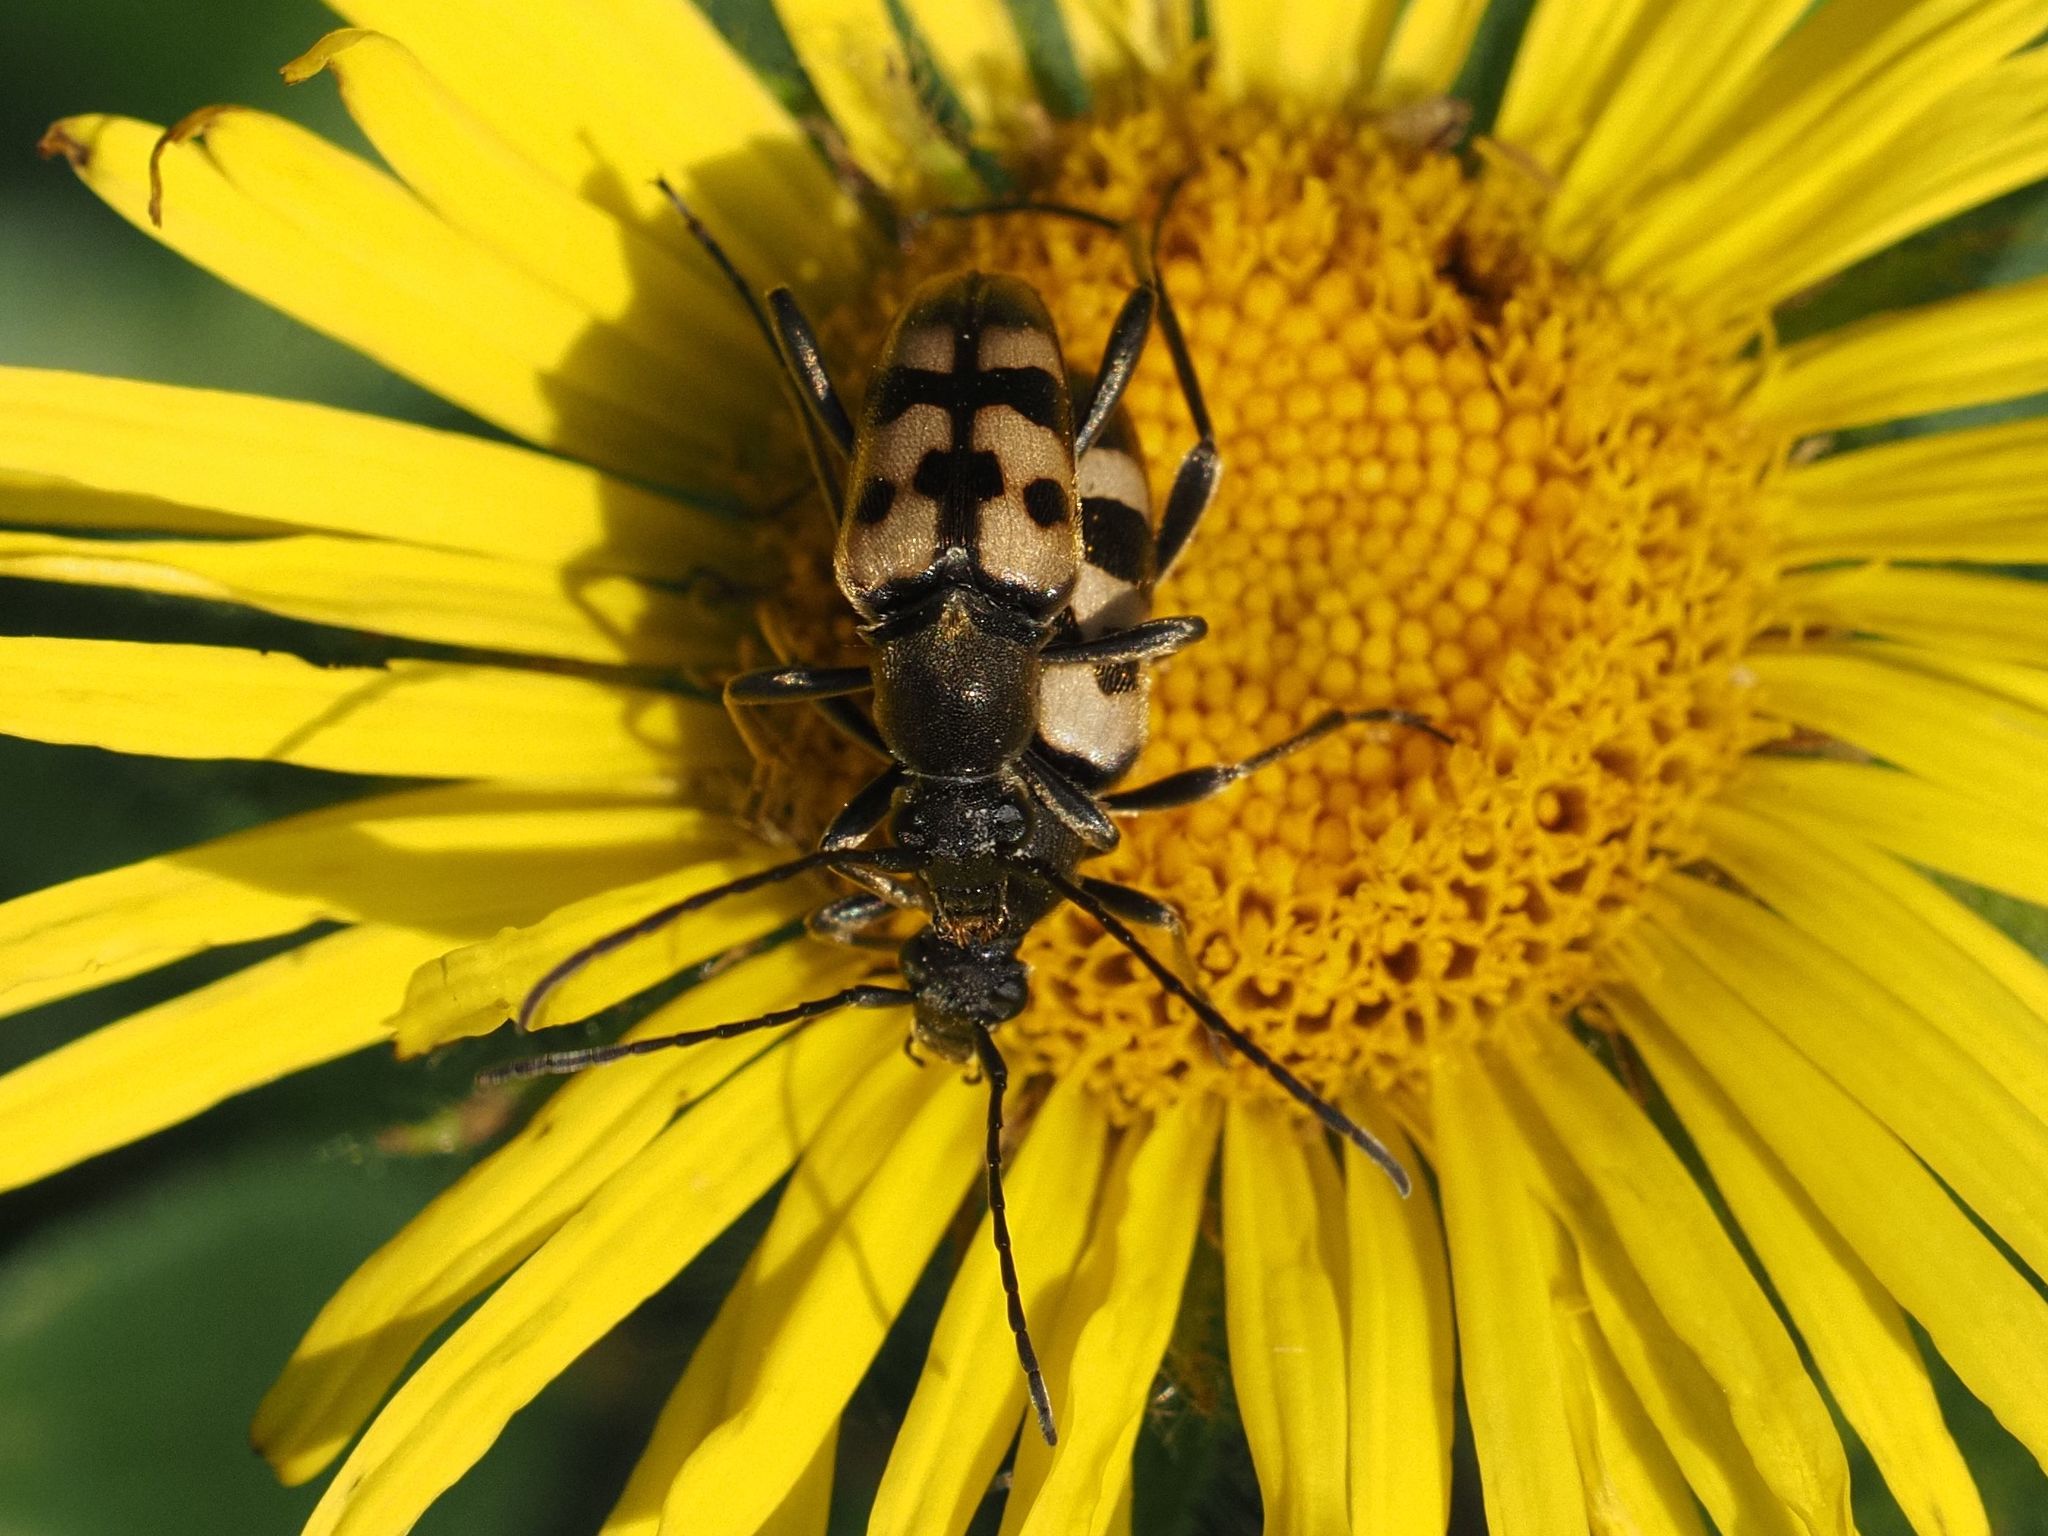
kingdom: Animalia
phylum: Arthropoda
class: Insecta
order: Coleoptera
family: Cerambycidae
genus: Pachytodes
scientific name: Pachytodes
